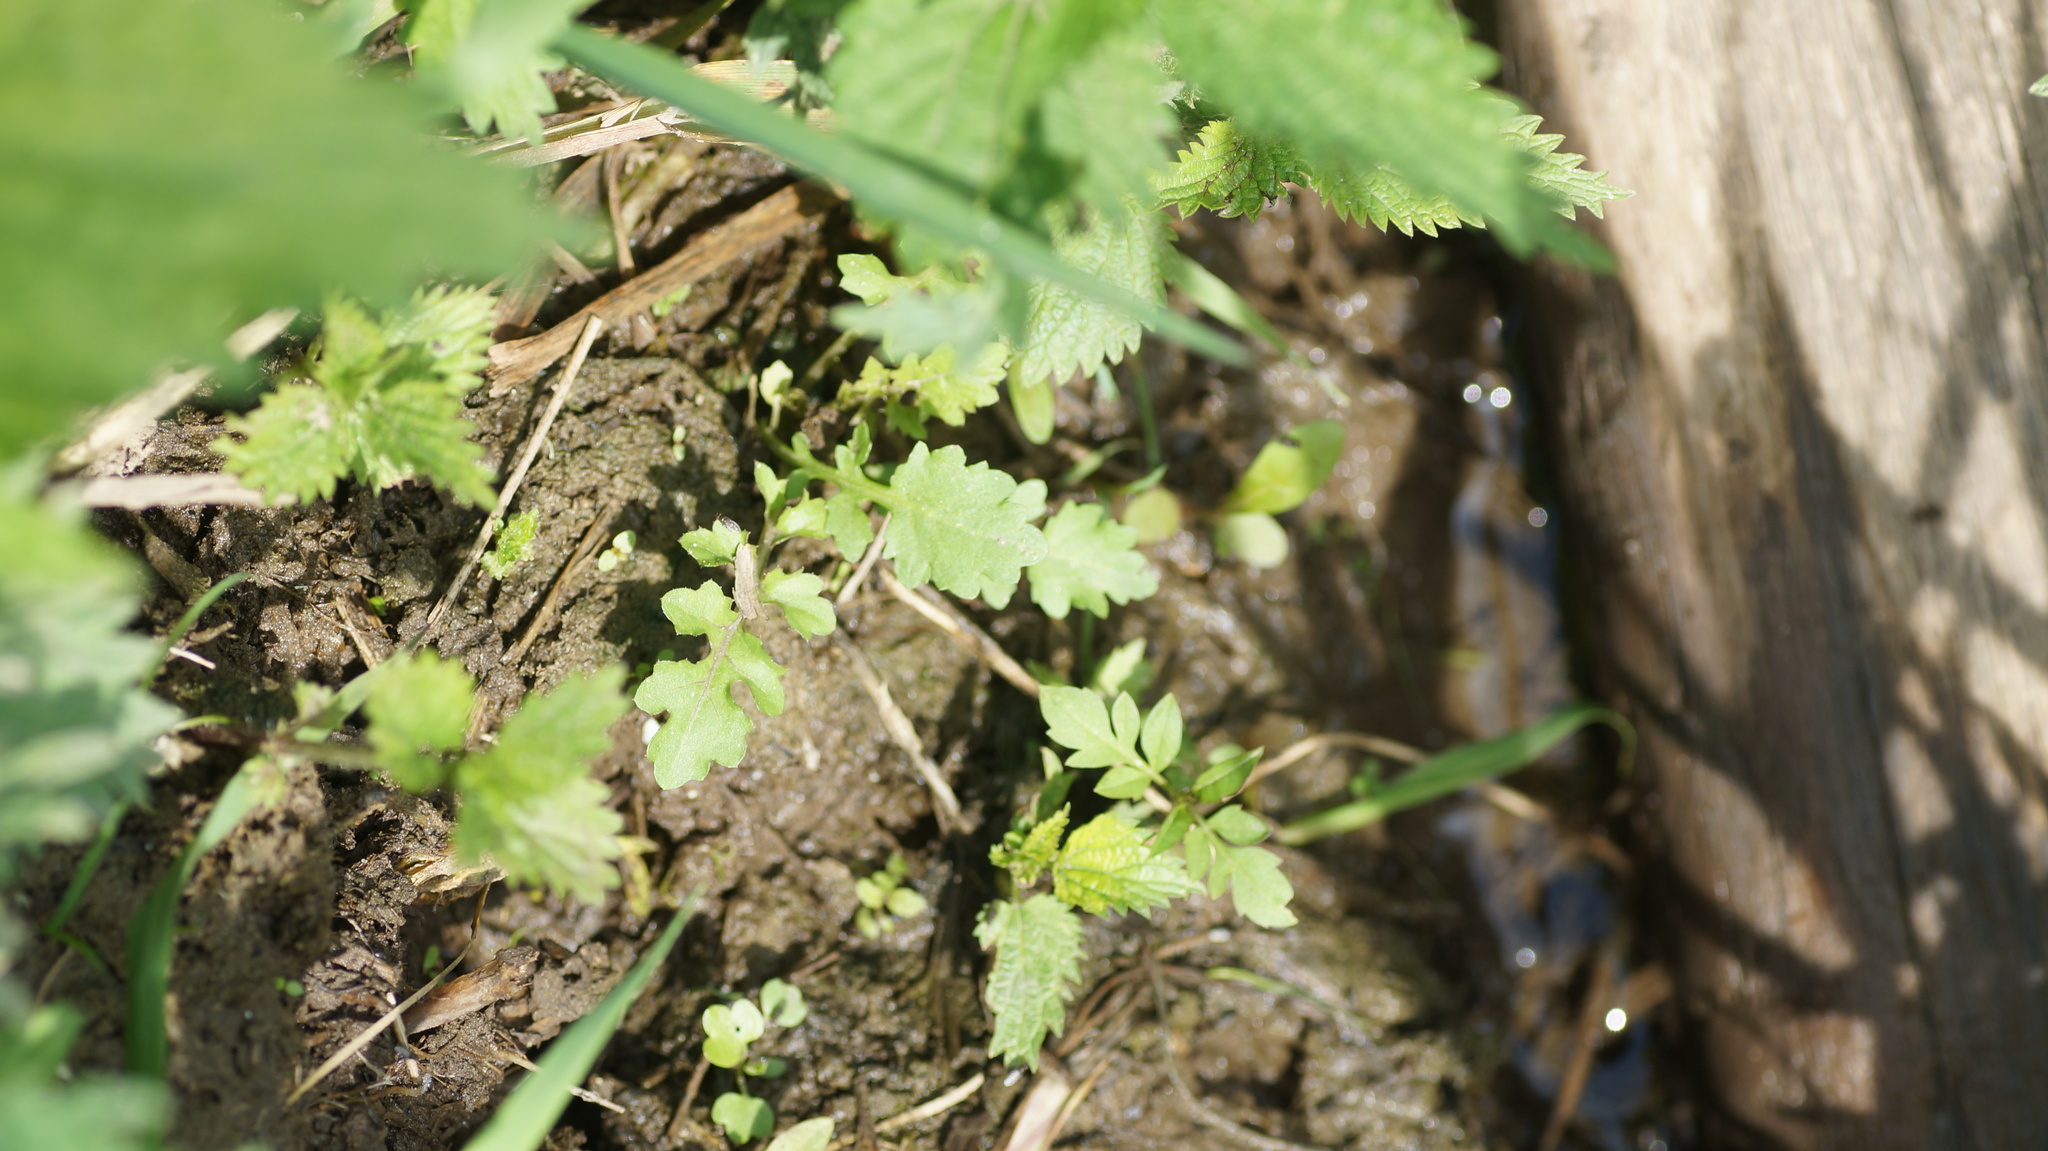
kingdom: Plantae
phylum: Tracheophyta
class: Magnoliopsida
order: Brassicales
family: Brassicaceae
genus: Rorippa
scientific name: Rorippa palustris
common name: Marsh yellow-cress
